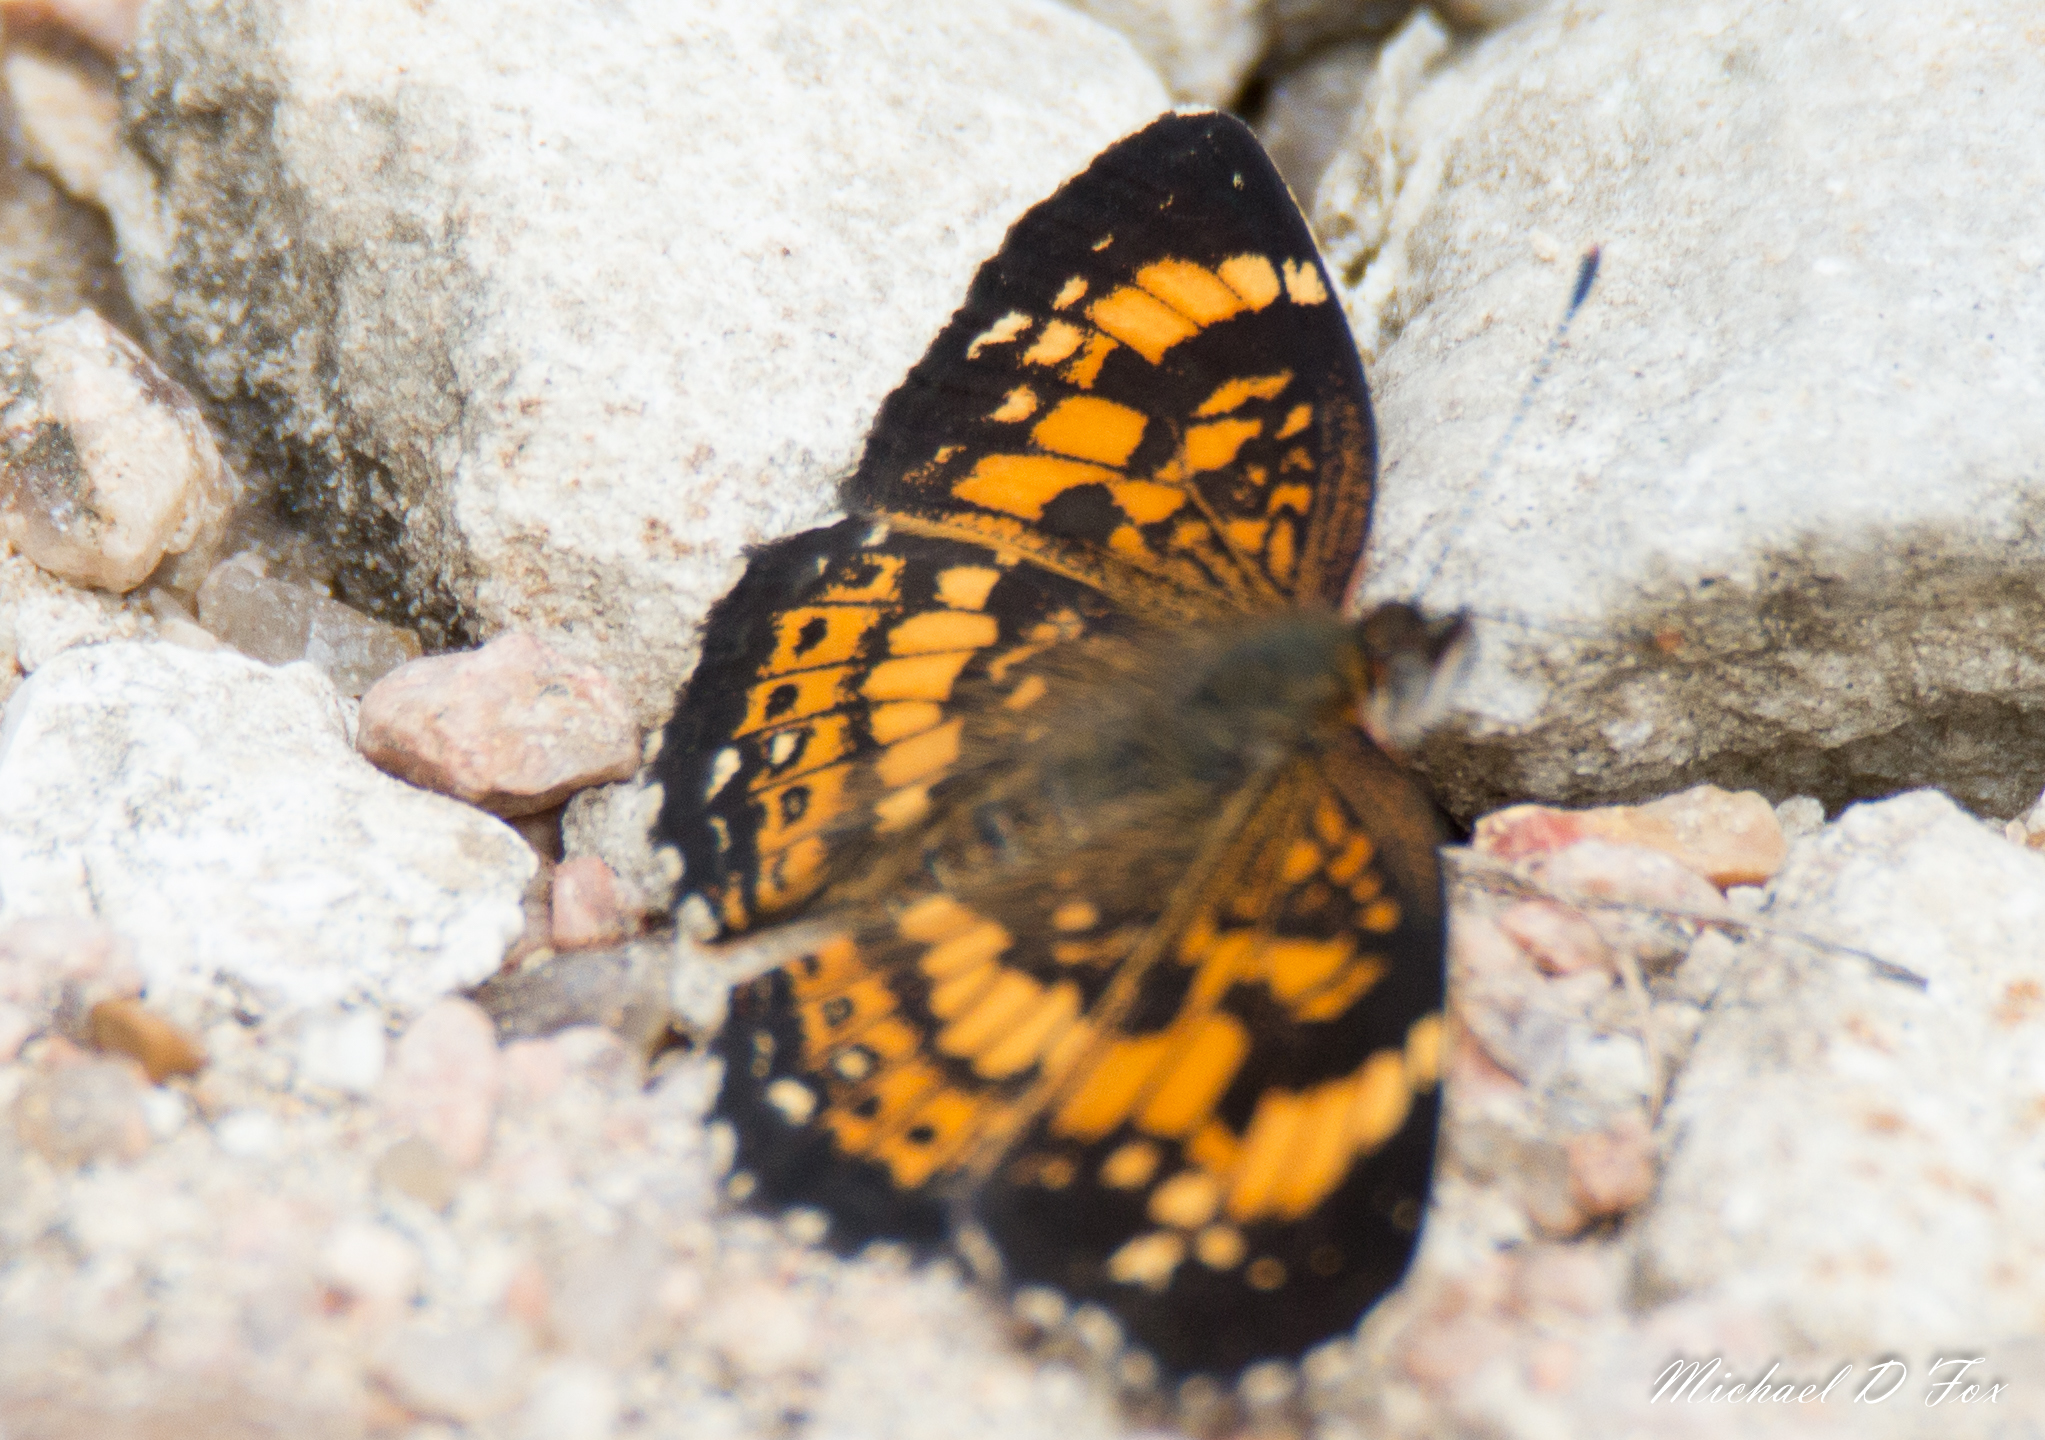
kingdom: Animalia
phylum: Arthropoda
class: Insecta
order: Lepidoptera
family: Nymphalidae
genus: Phyciodes
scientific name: Phyciodes tharos
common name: Pearl crescent
